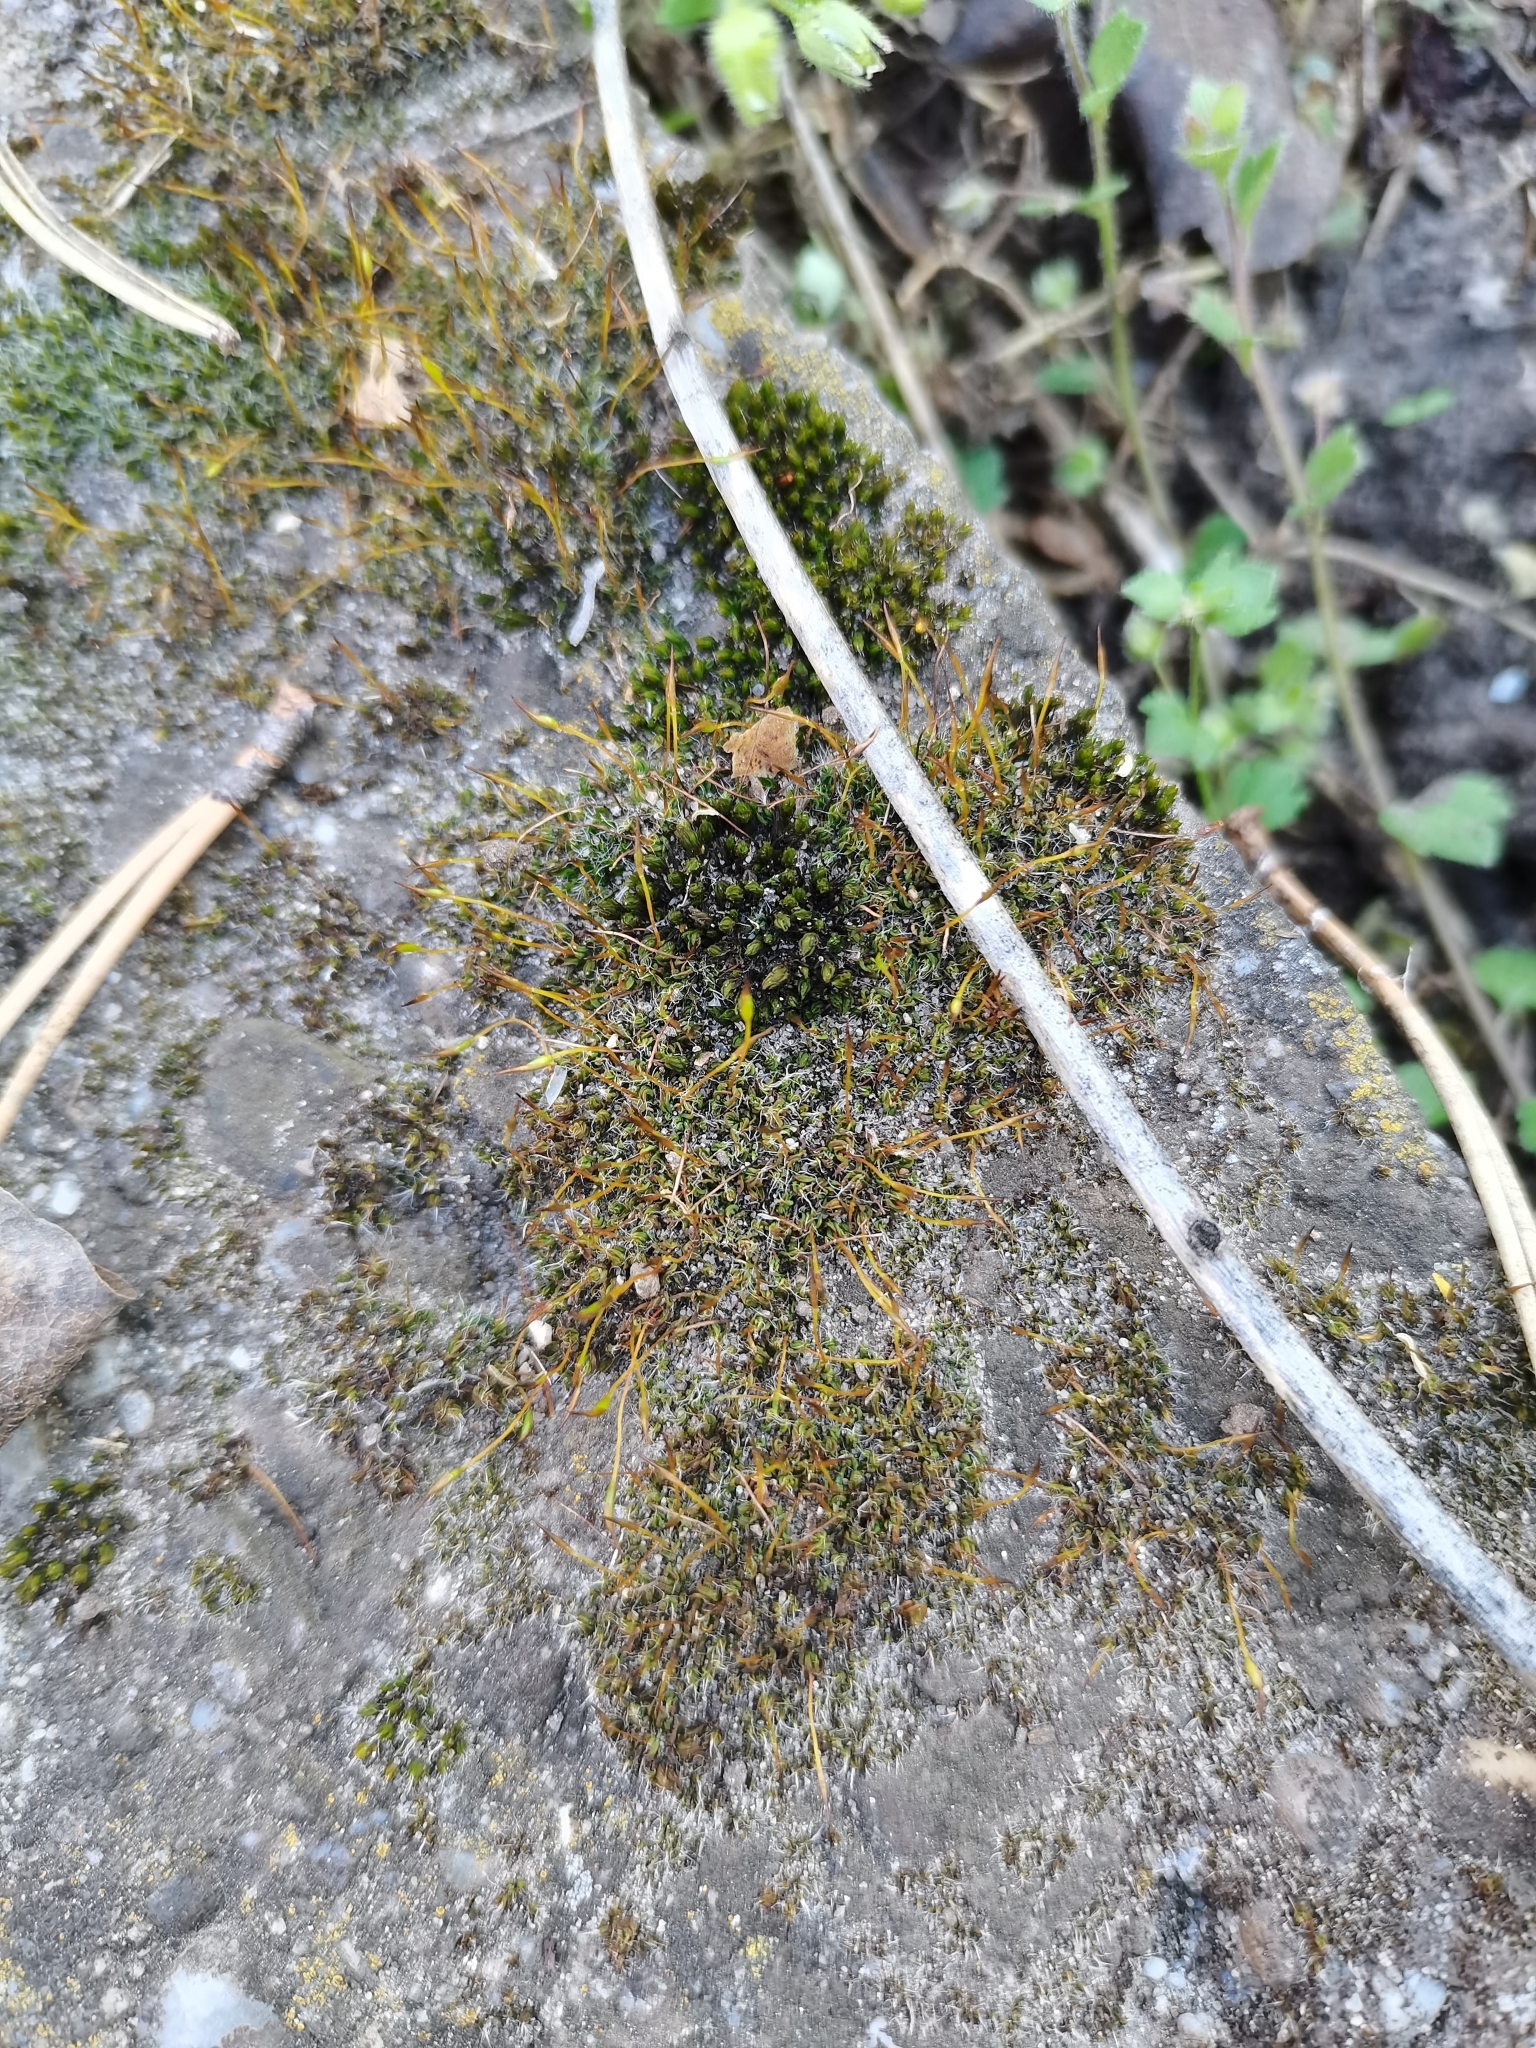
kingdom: Plantae
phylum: Bryophyta
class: Bryopsida
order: Pottiales
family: Pottiaceae
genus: Tortula
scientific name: Tortula muralis
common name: Wall screw-moss
